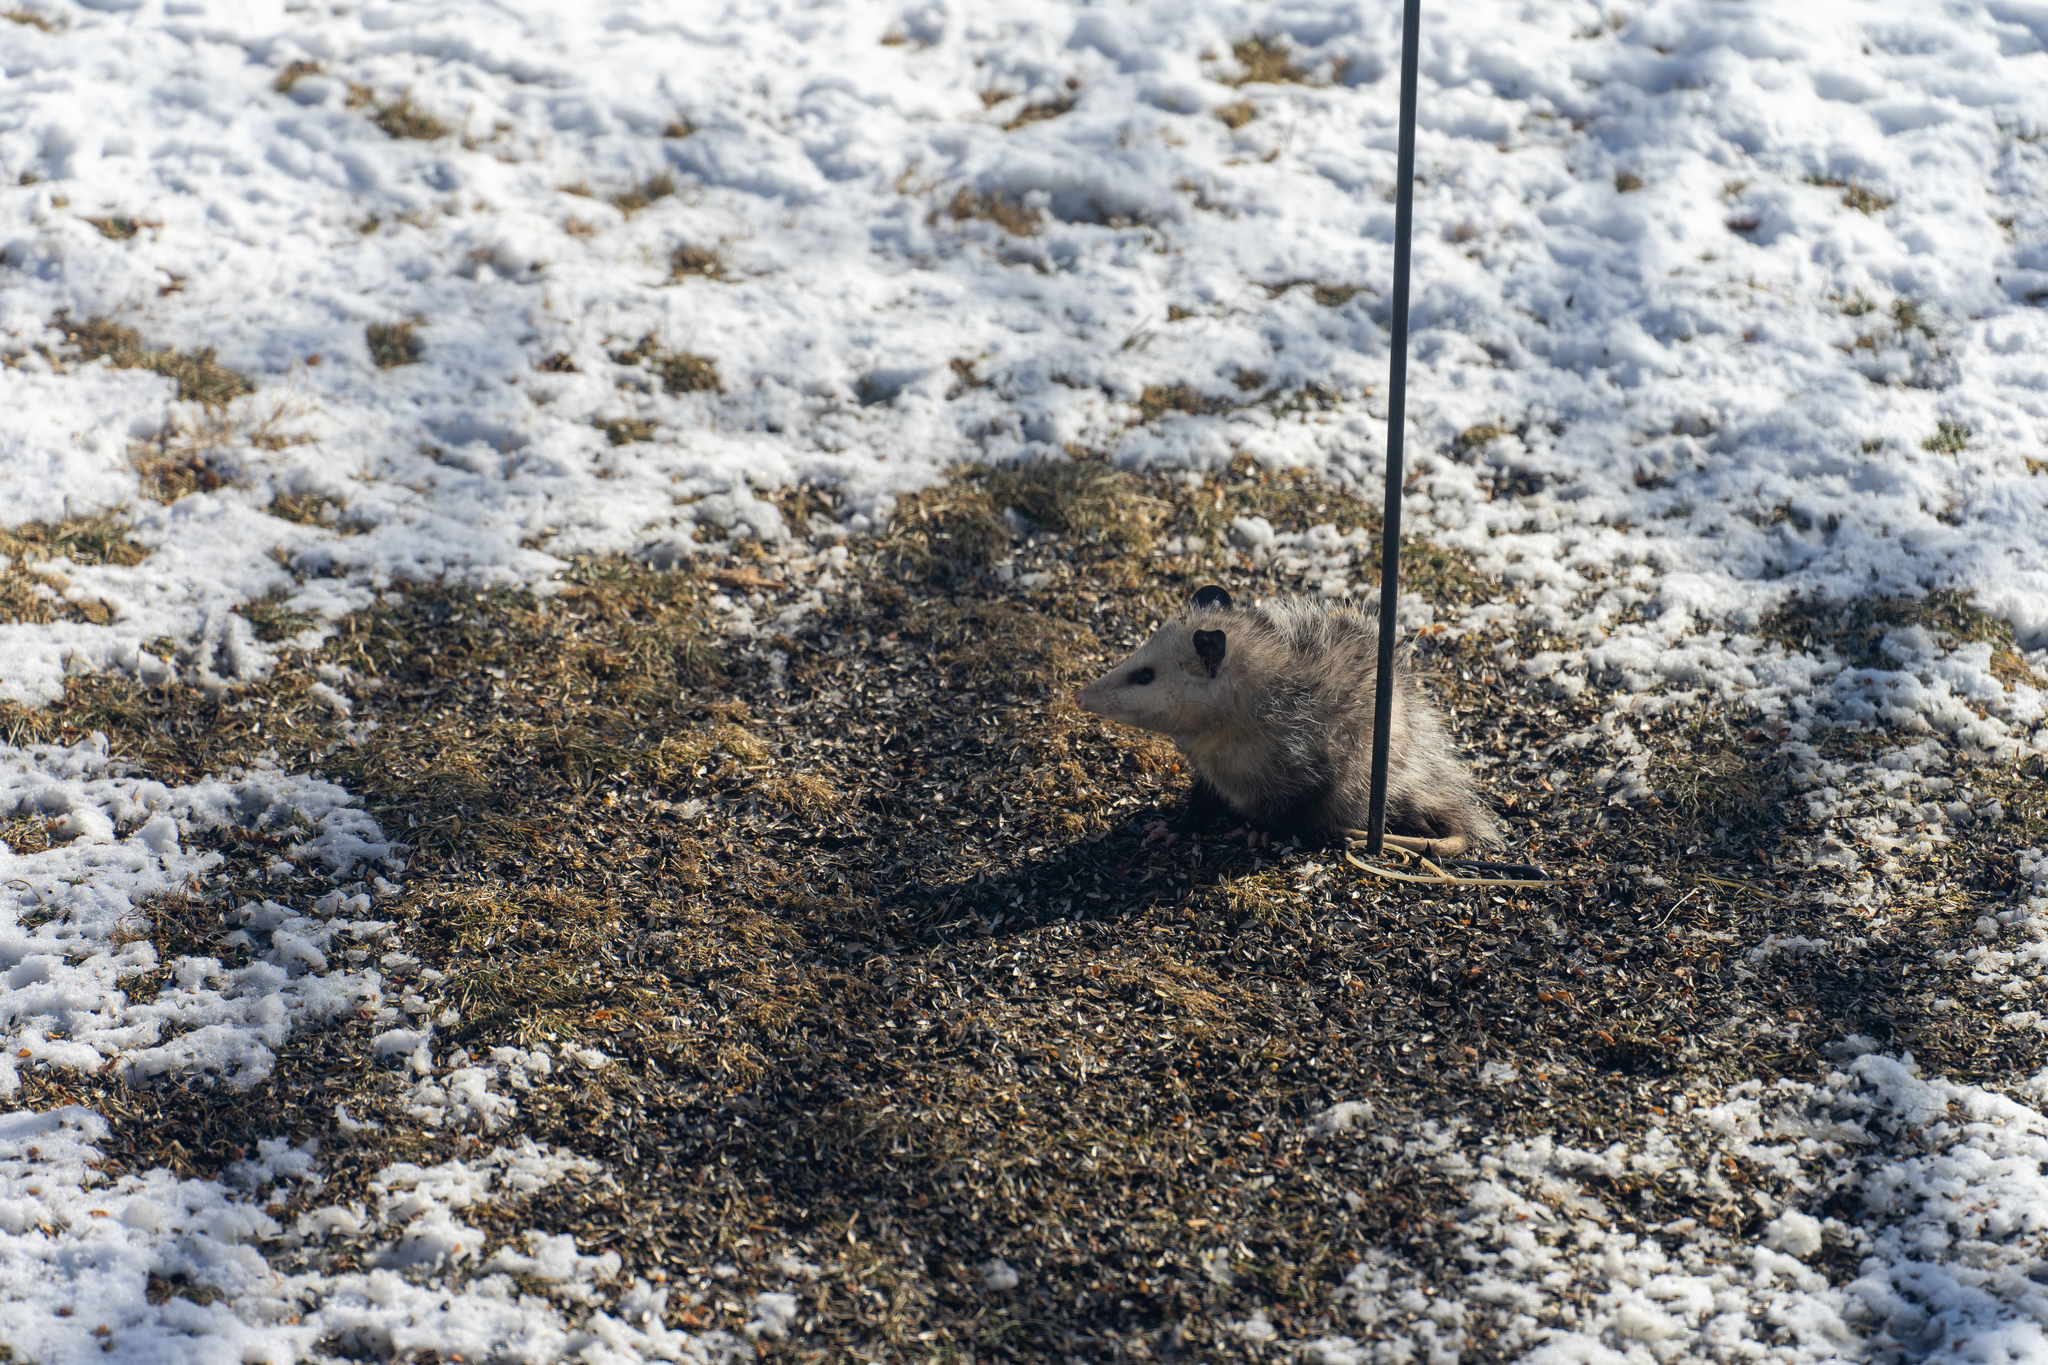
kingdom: Animalia
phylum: Chordata
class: Mammalia
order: Didelphimorphia
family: Didelphidae
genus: Didelphis
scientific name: Didelphis virginiana
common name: Virginia opossum
